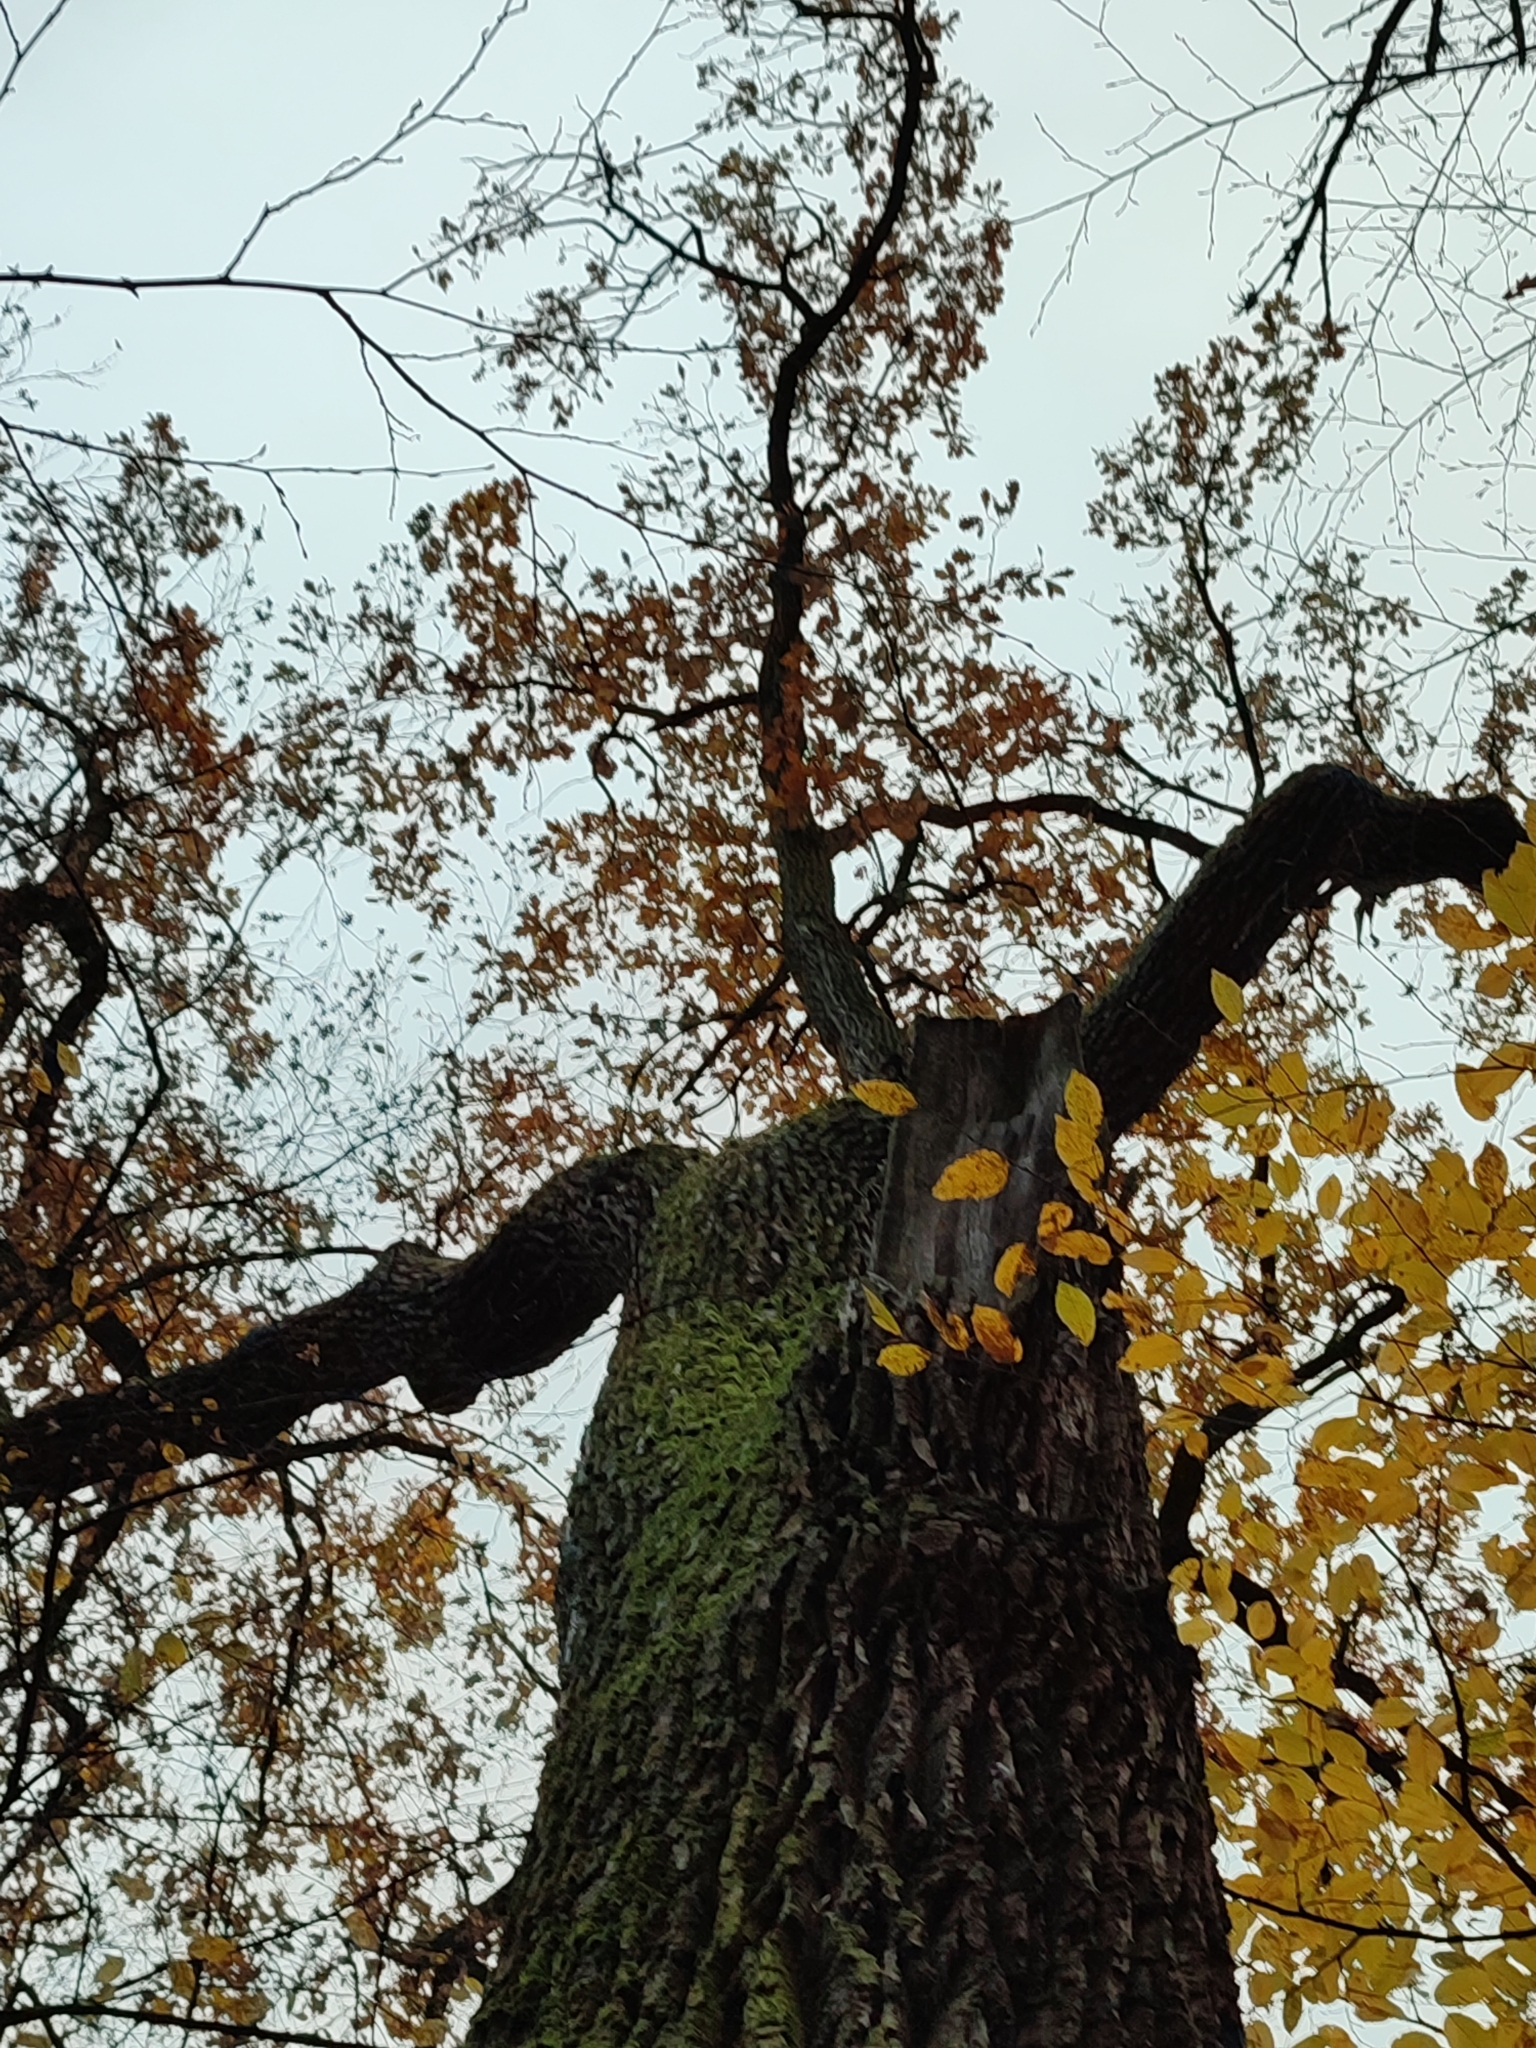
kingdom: Plantae
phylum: Tracheophyta
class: Magnoliopsida
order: Fagales
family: Fagaceae
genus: Quercus
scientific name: Quercus robur
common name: Pedunculate oak
